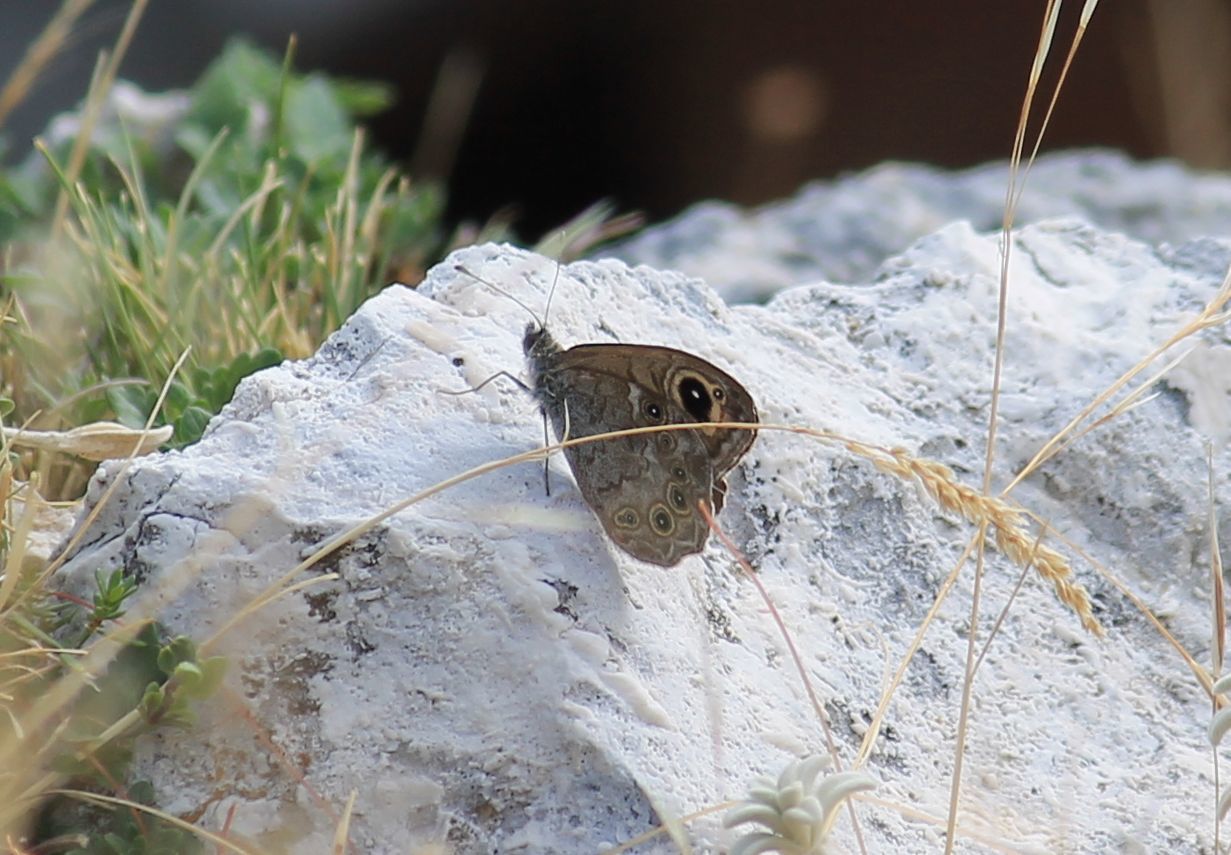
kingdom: Animalia
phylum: Arthropoda
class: Insecta
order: Lepidoptera
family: Nymphalidae
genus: Pararge
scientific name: Pararge Lasiommata maera
